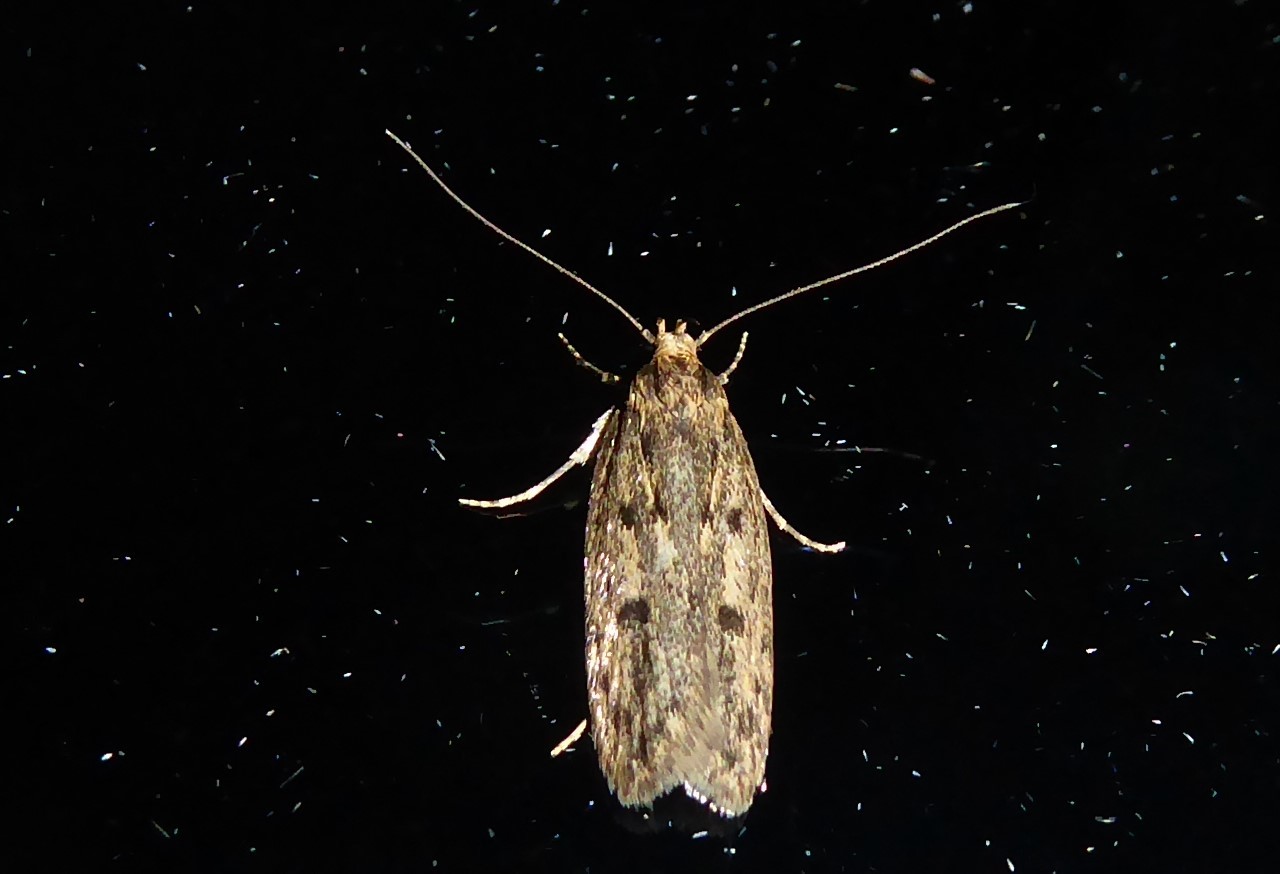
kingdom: Animalia
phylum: Arthropoda
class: Insecta
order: Lepidoptera
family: Oecophoridae
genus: Hofmannophila
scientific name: Hofmannophila pseudospretella
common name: Brown house moth
